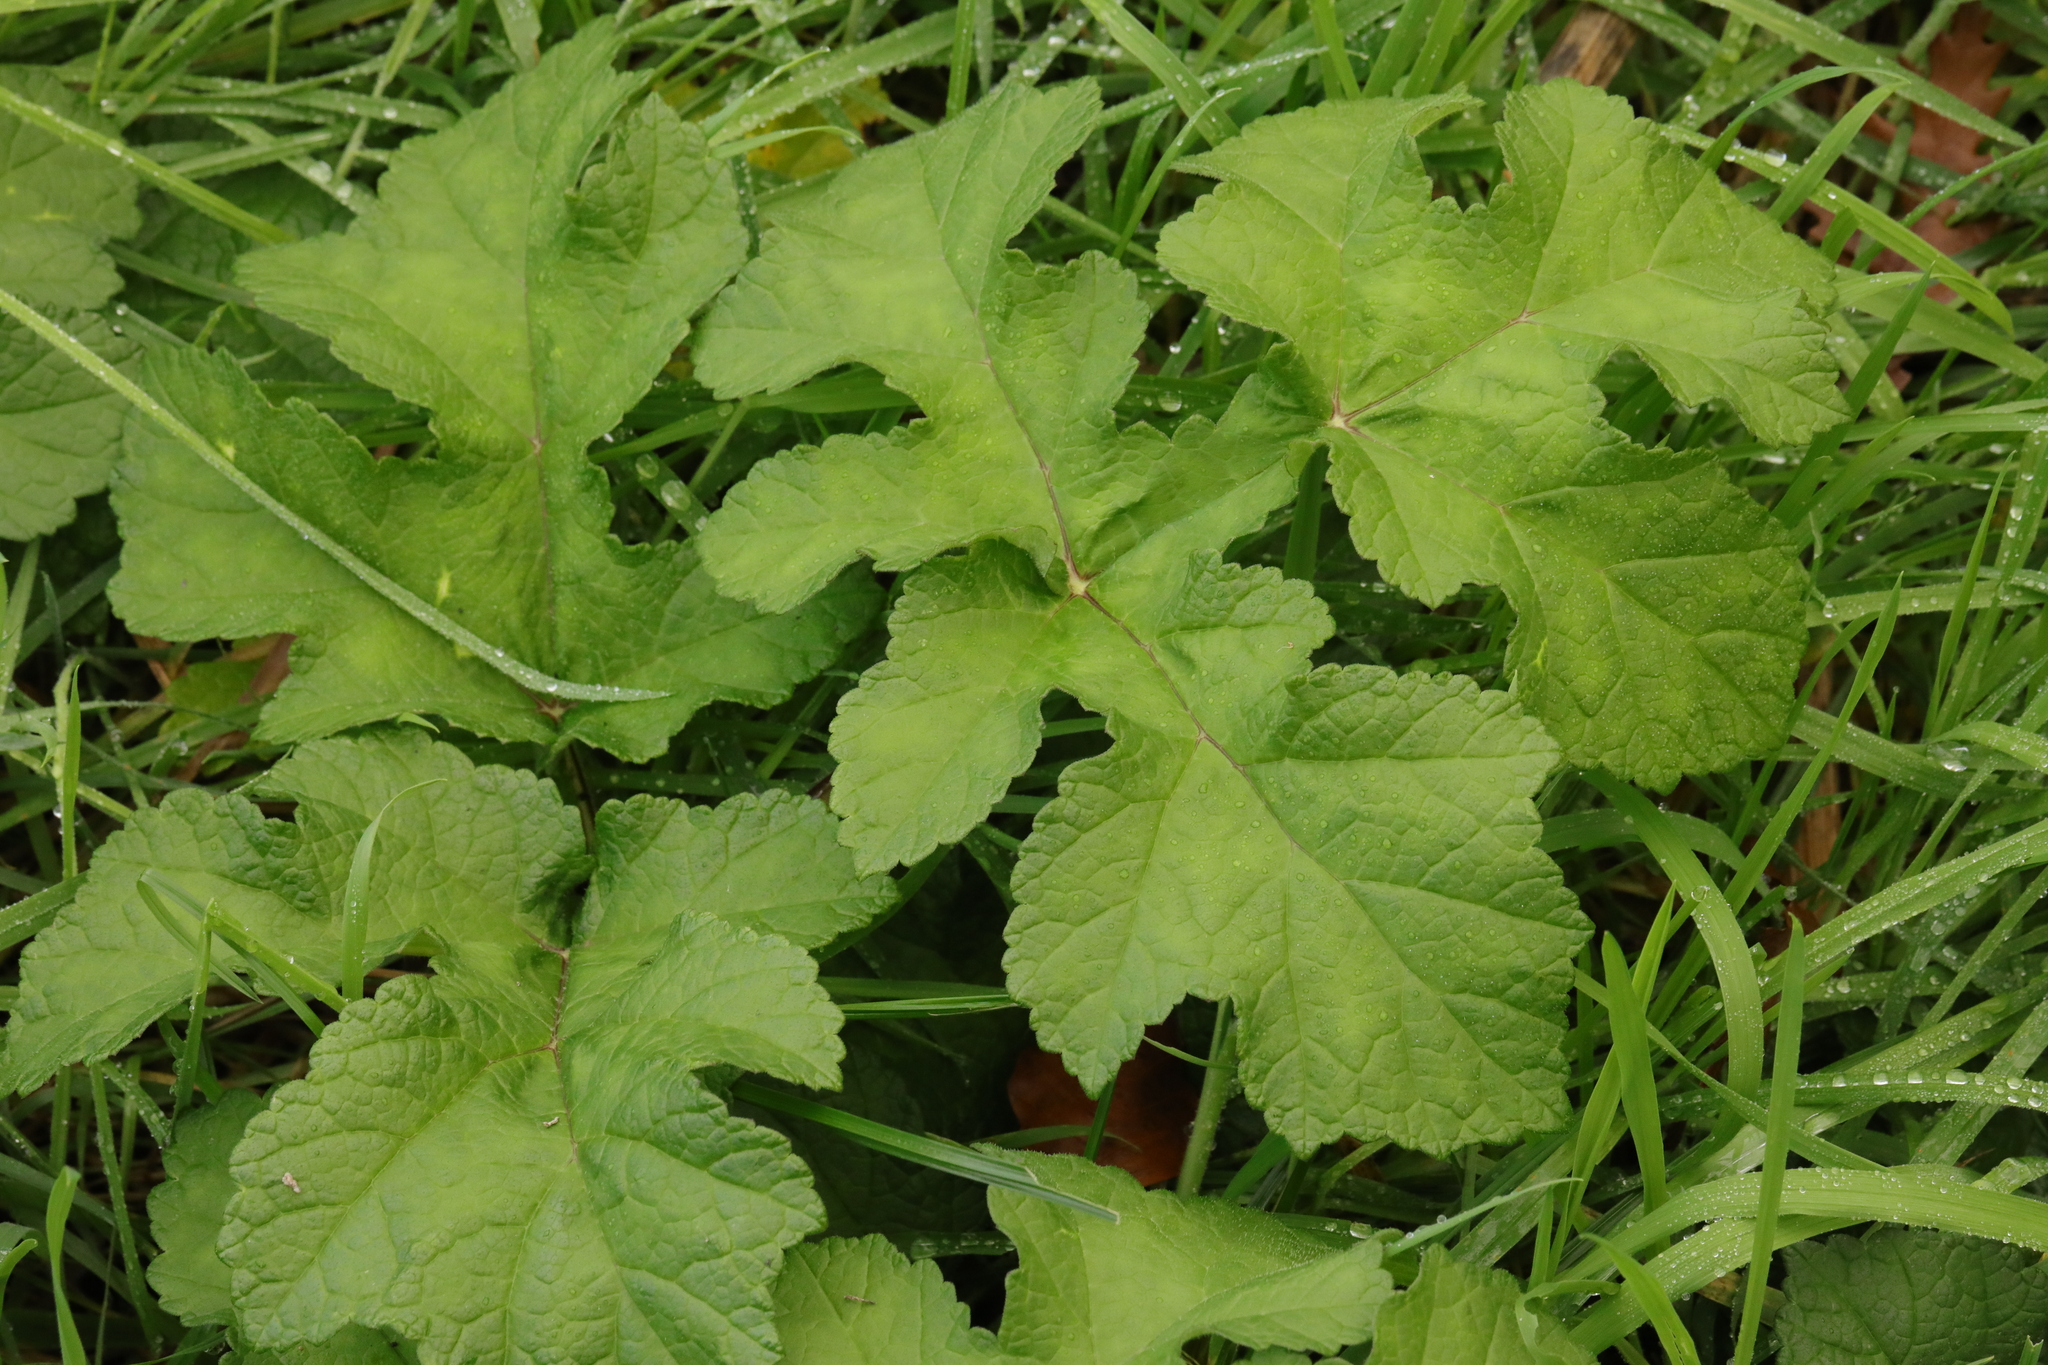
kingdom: Plantae
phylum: Tracheophyta
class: Magnoliopsida
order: Apiales
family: Apiaceae
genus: Heracleum
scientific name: Heracleum sphondylium
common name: Hogweed
